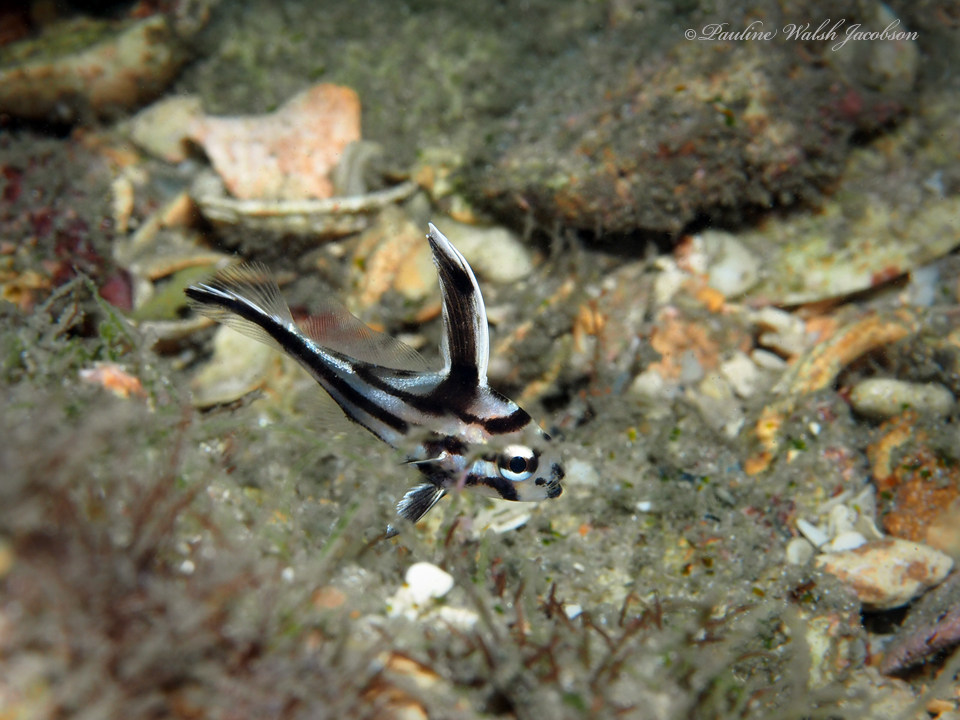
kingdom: Animalia
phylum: Chordata
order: Perciformes
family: Sciaenidae
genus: Pareques
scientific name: Pareques acuminatus
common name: High-hat
